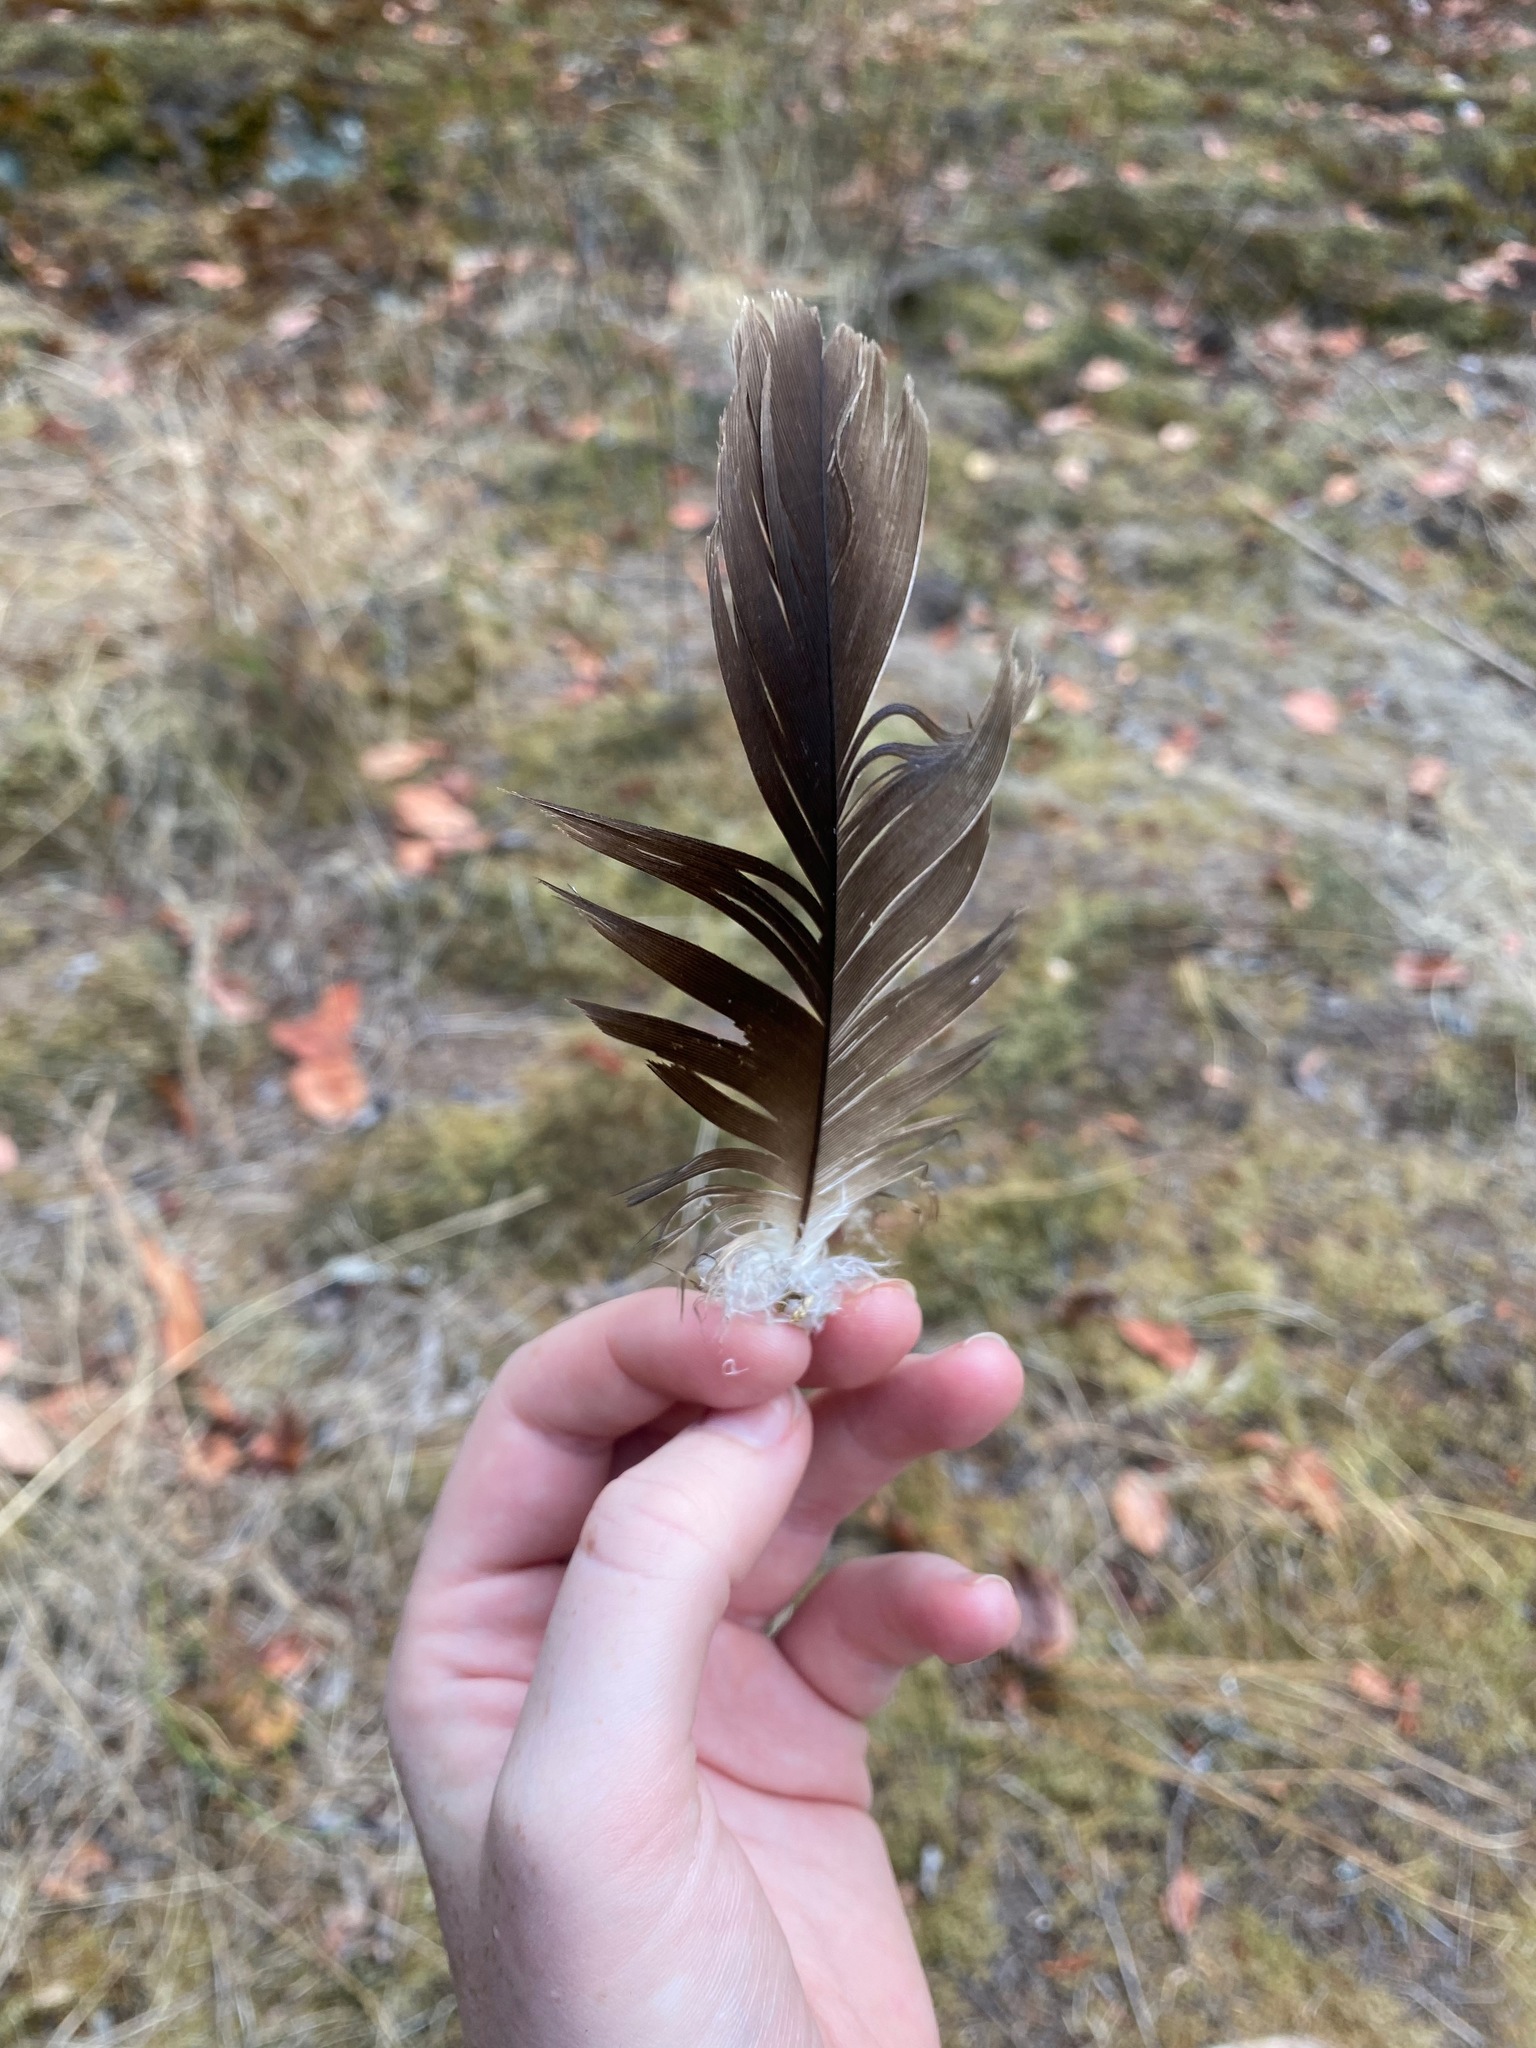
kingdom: Animalia
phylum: Chordata
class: Aves
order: Accipitriformes
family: Cathartidae
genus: Cathartes
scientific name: Cathartes aura
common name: Turkey vulture
